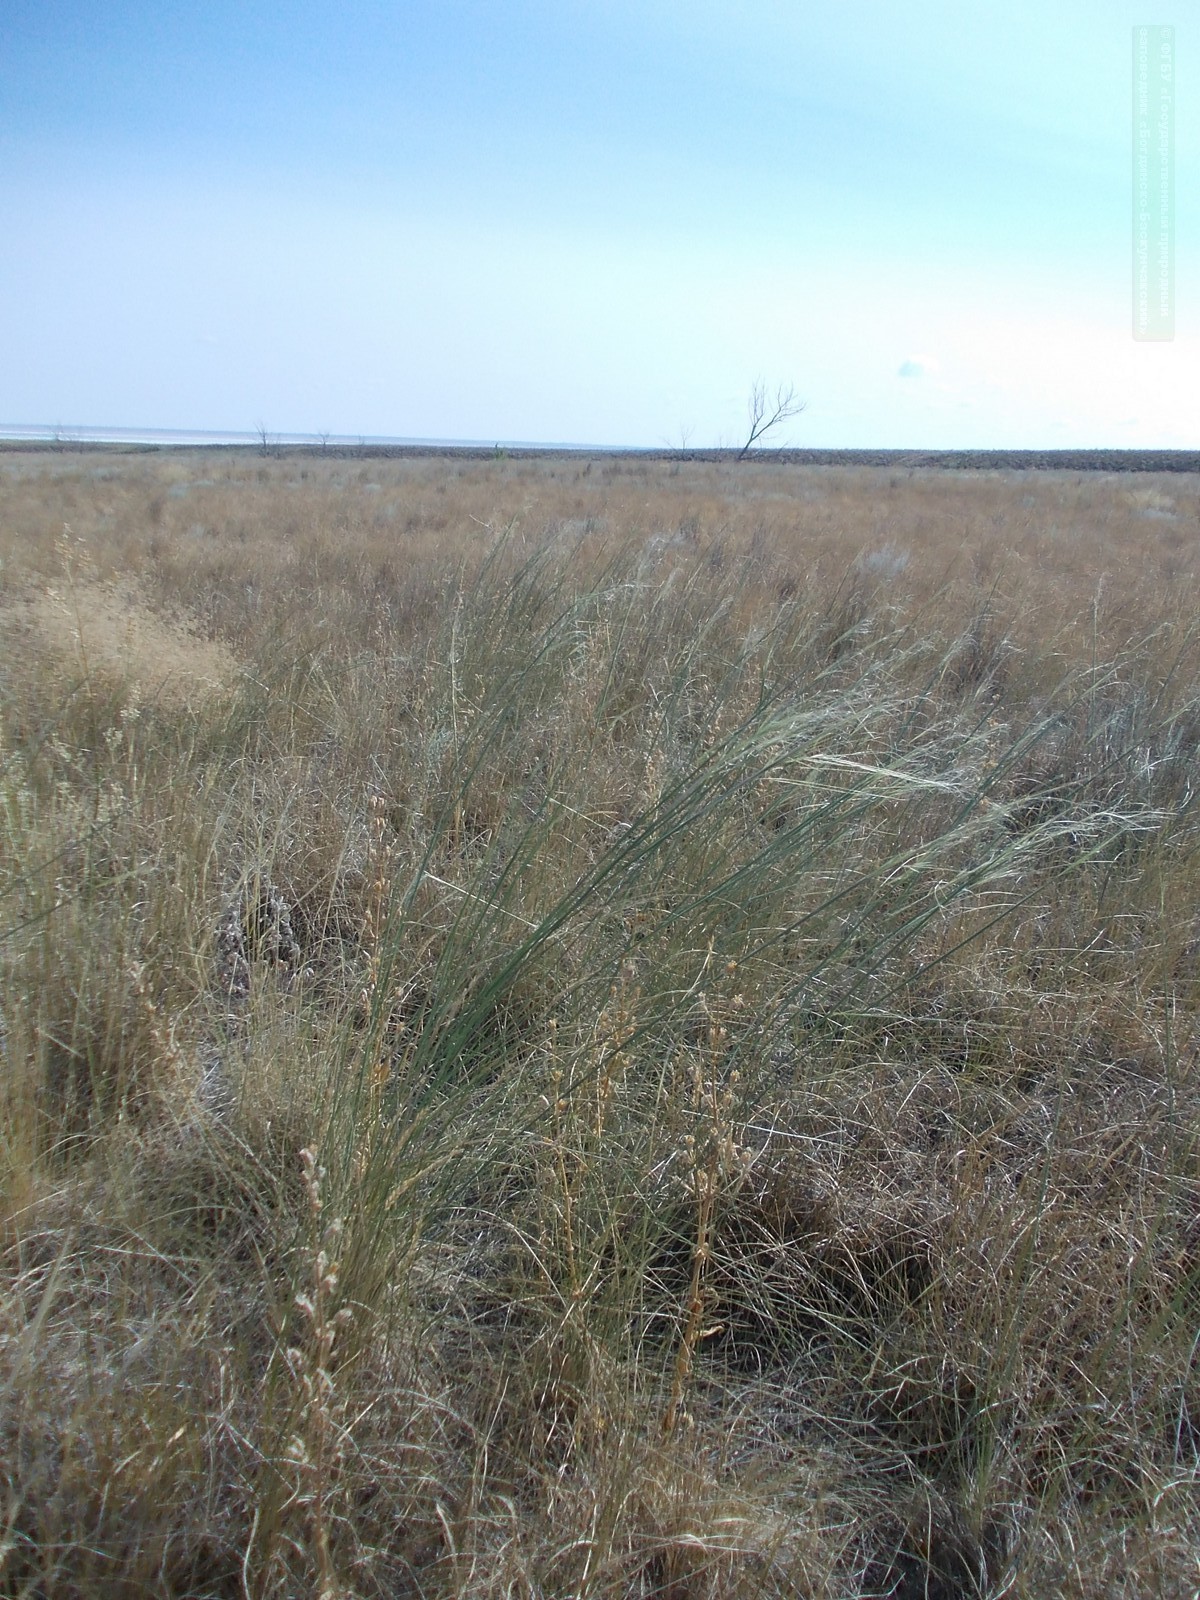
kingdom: Plantae
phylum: Tracheophyta
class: Liliopsida
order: Poales
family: Poaceae
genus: Stipa
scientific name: Stipa capillata
